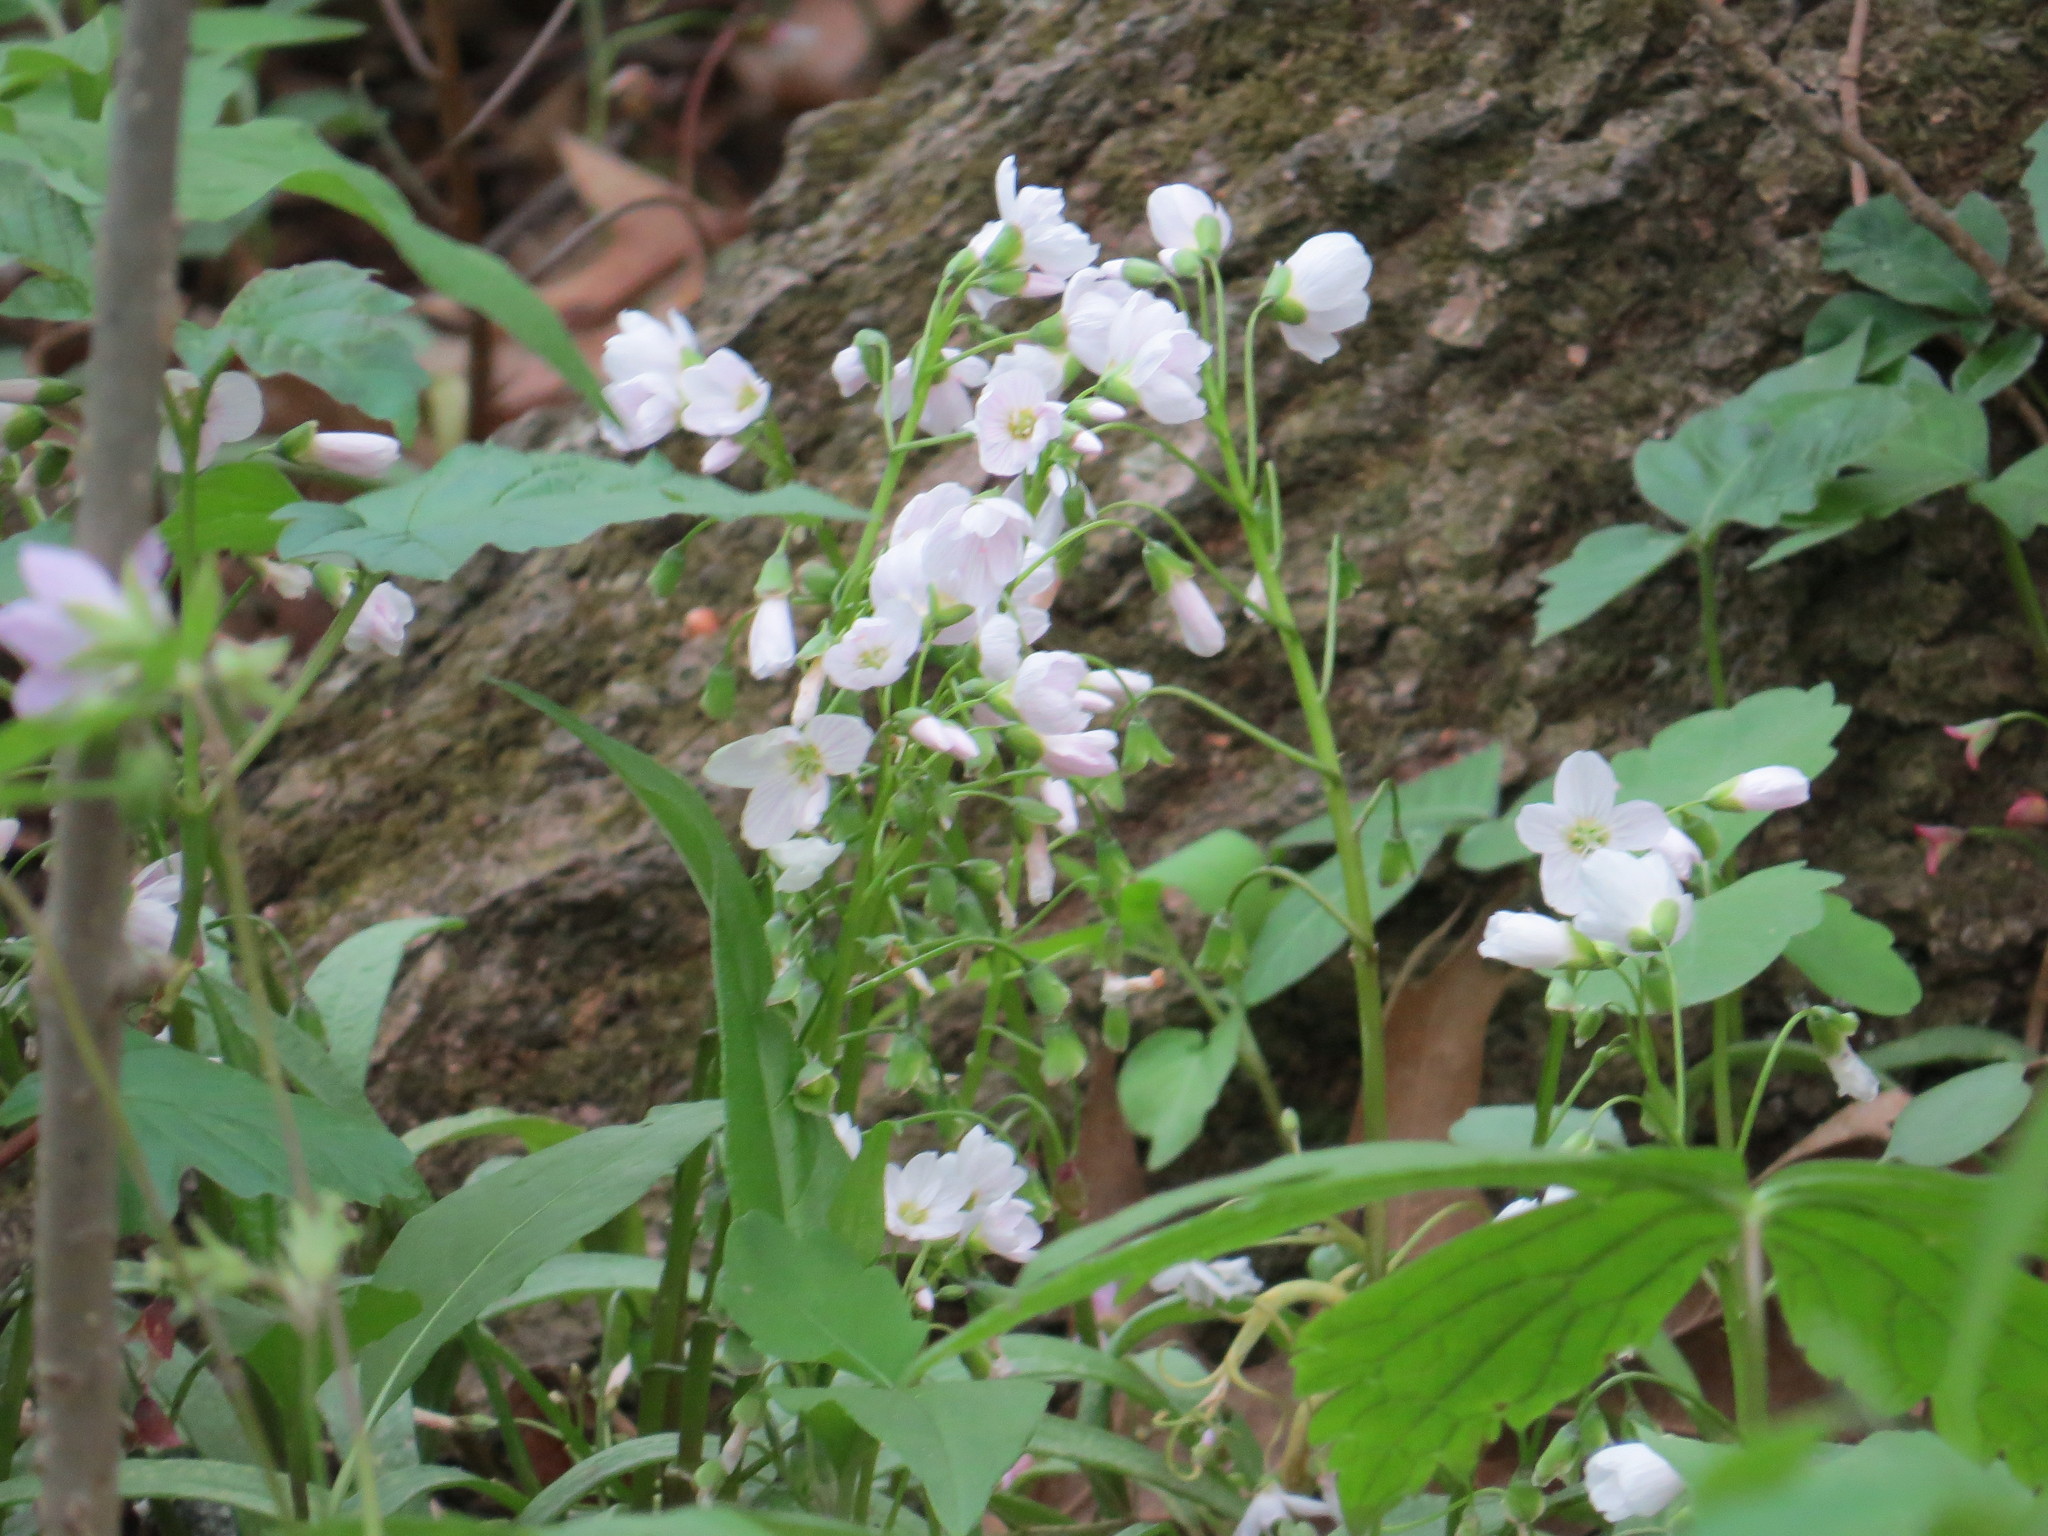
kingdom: Plantae
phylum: Tracheophyta
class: Magnoliopsida
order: Caryophyllales
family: Montiaceae
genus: Claytonia
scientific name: Claytonia virginica
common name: Virginia springbeauty
